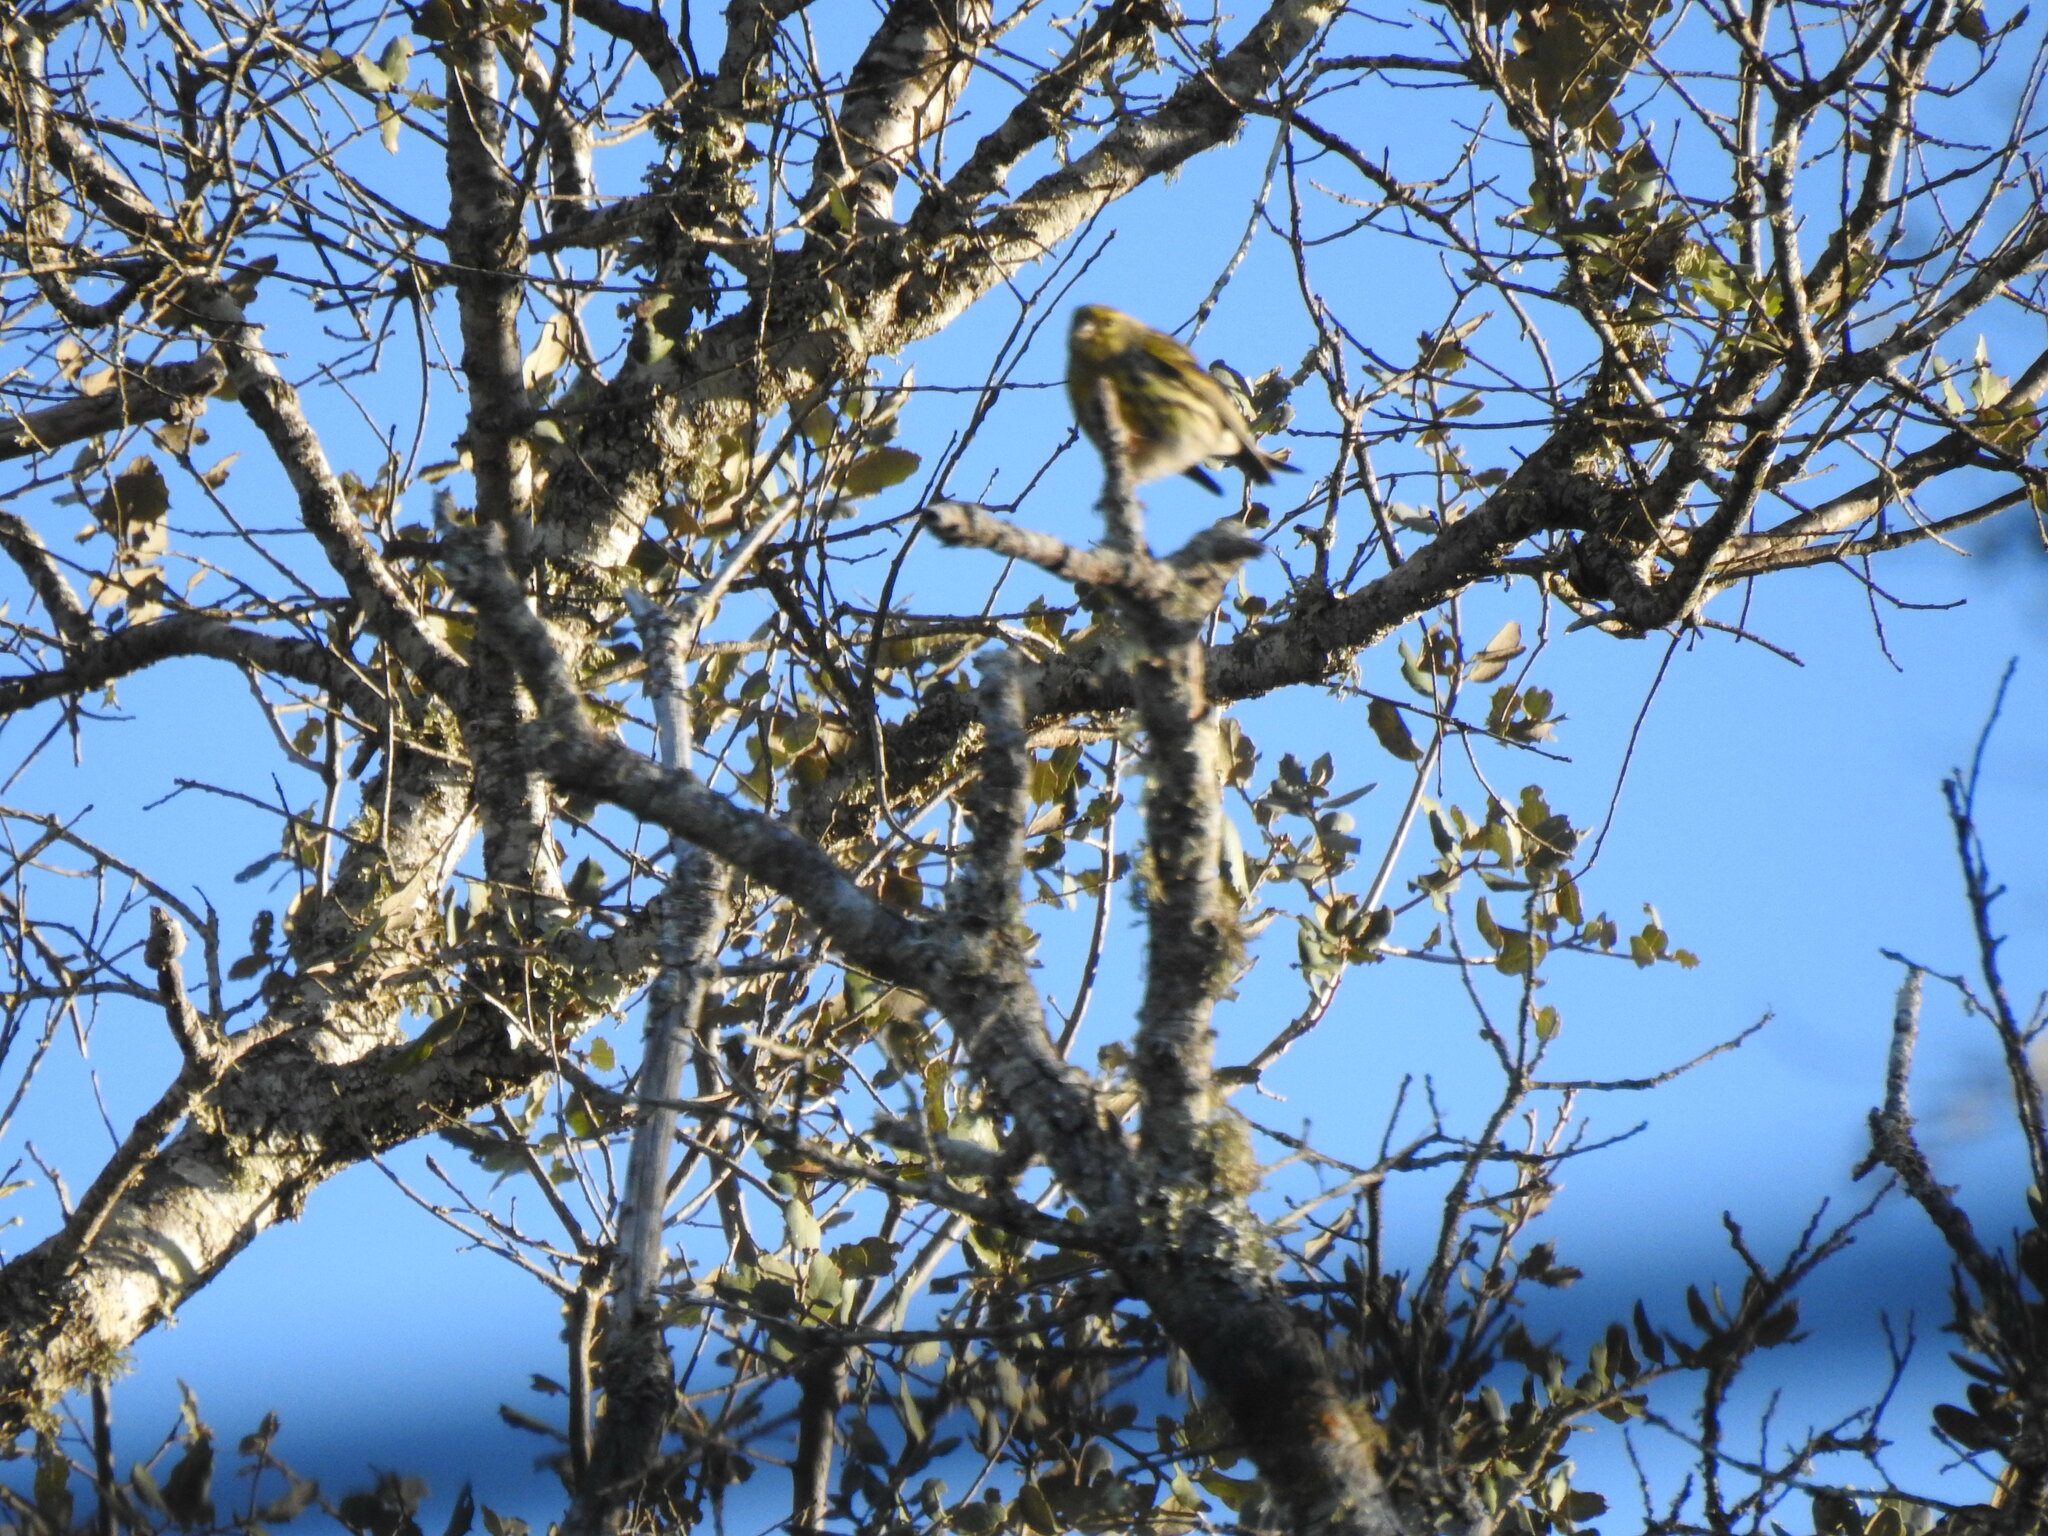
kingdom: Animalia
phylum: Chordata
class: Aves
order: Passeriformes
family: Fringillidae
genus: Serinus
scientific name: Serinus serinus
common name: European serin
